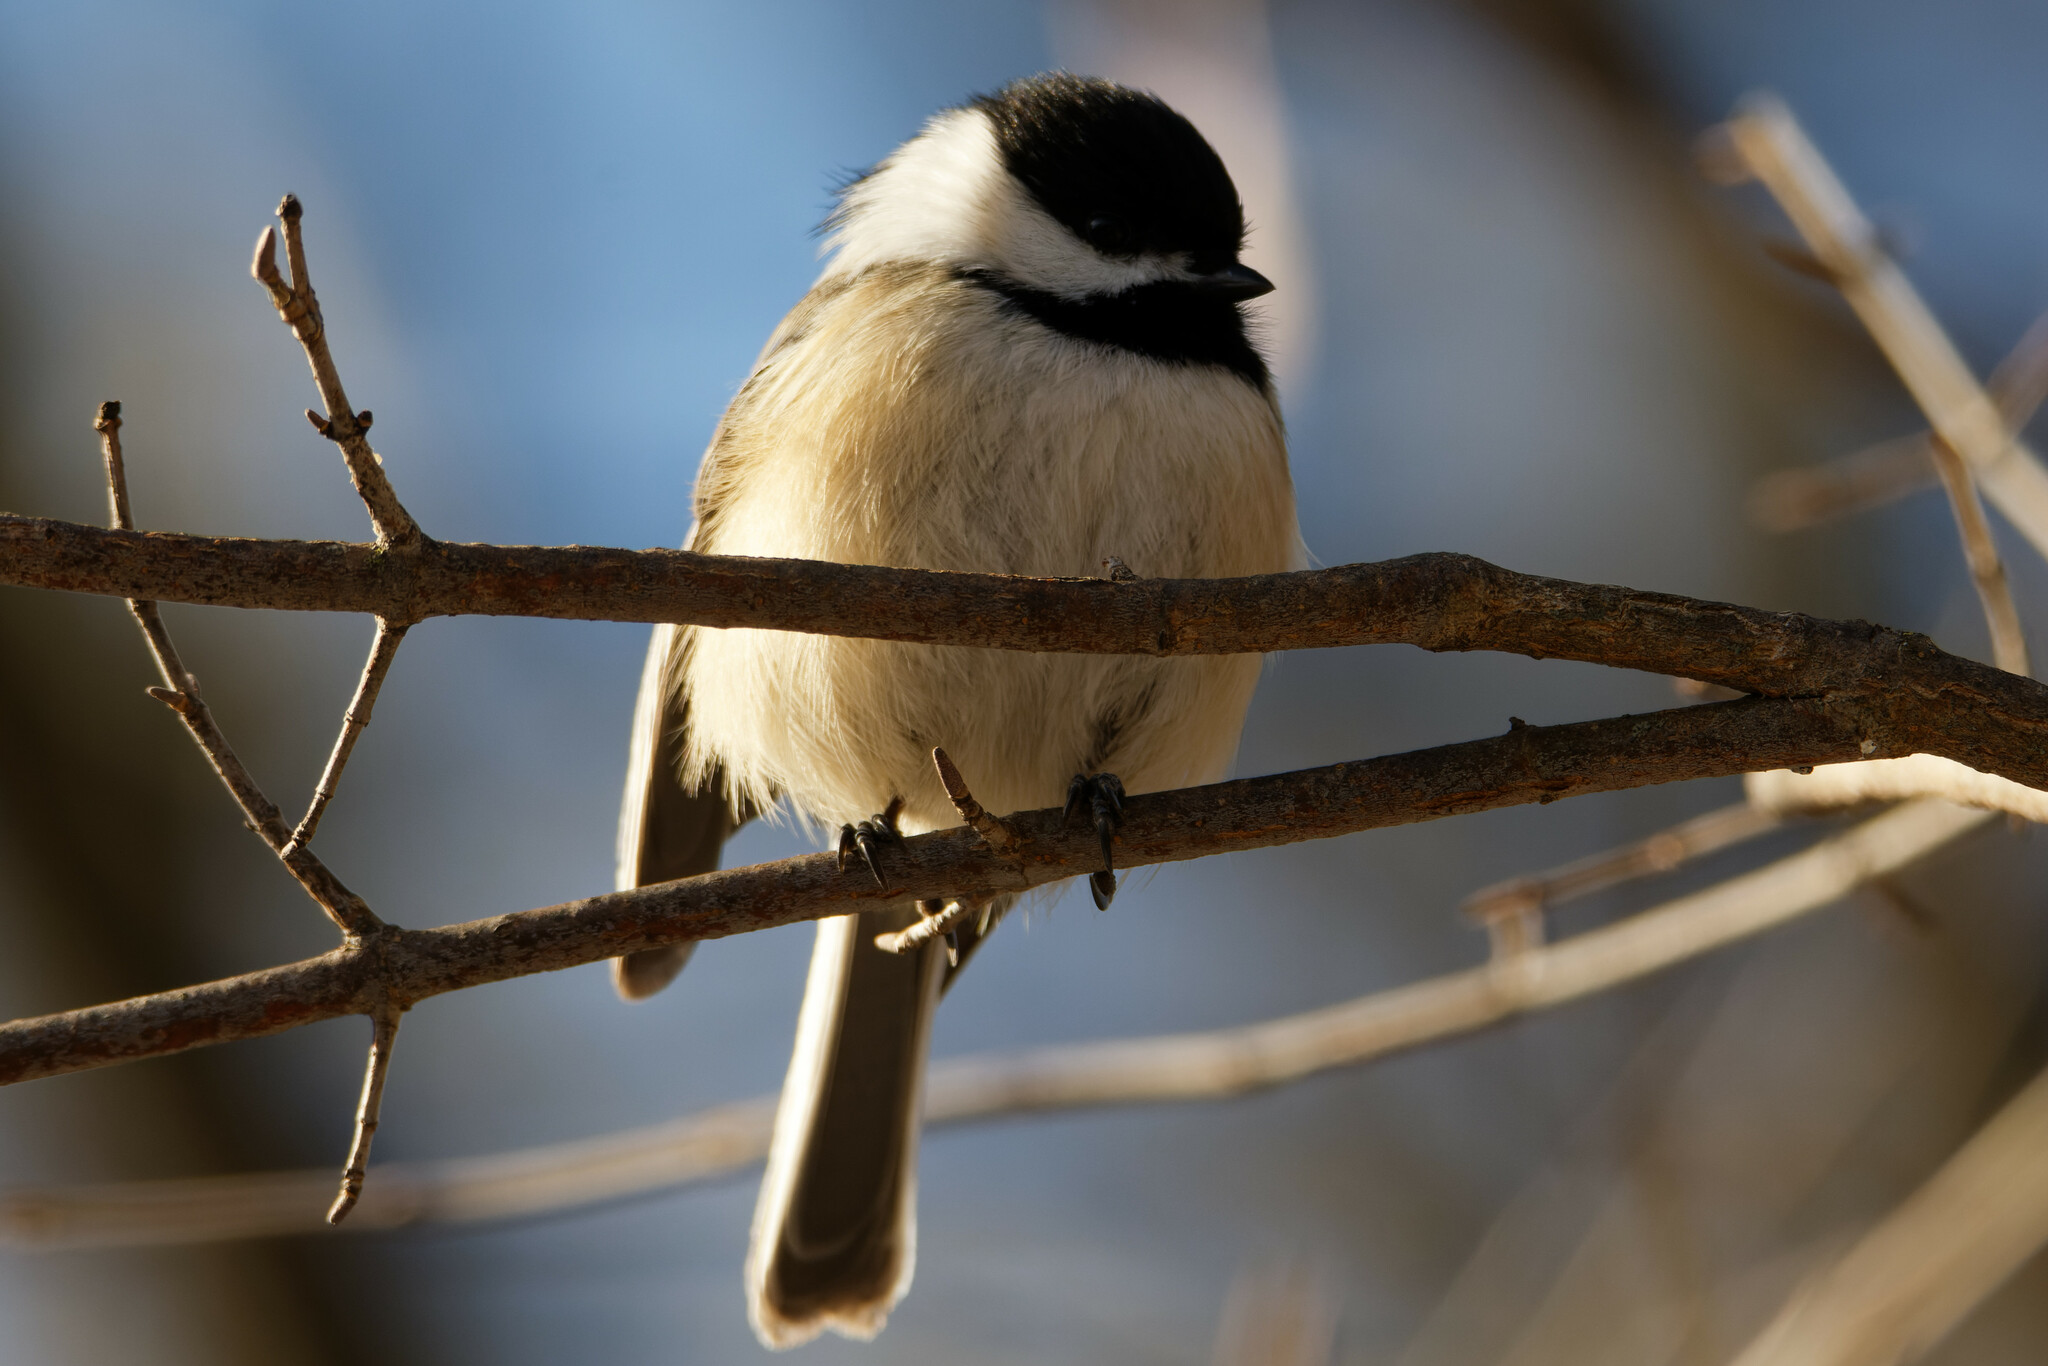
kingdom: Animalia
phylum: Chordata
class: Aves
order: Passeriformes
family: Paridae
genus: Poecile
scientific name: Poecile atricapillus
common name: Black-capped chickadee
